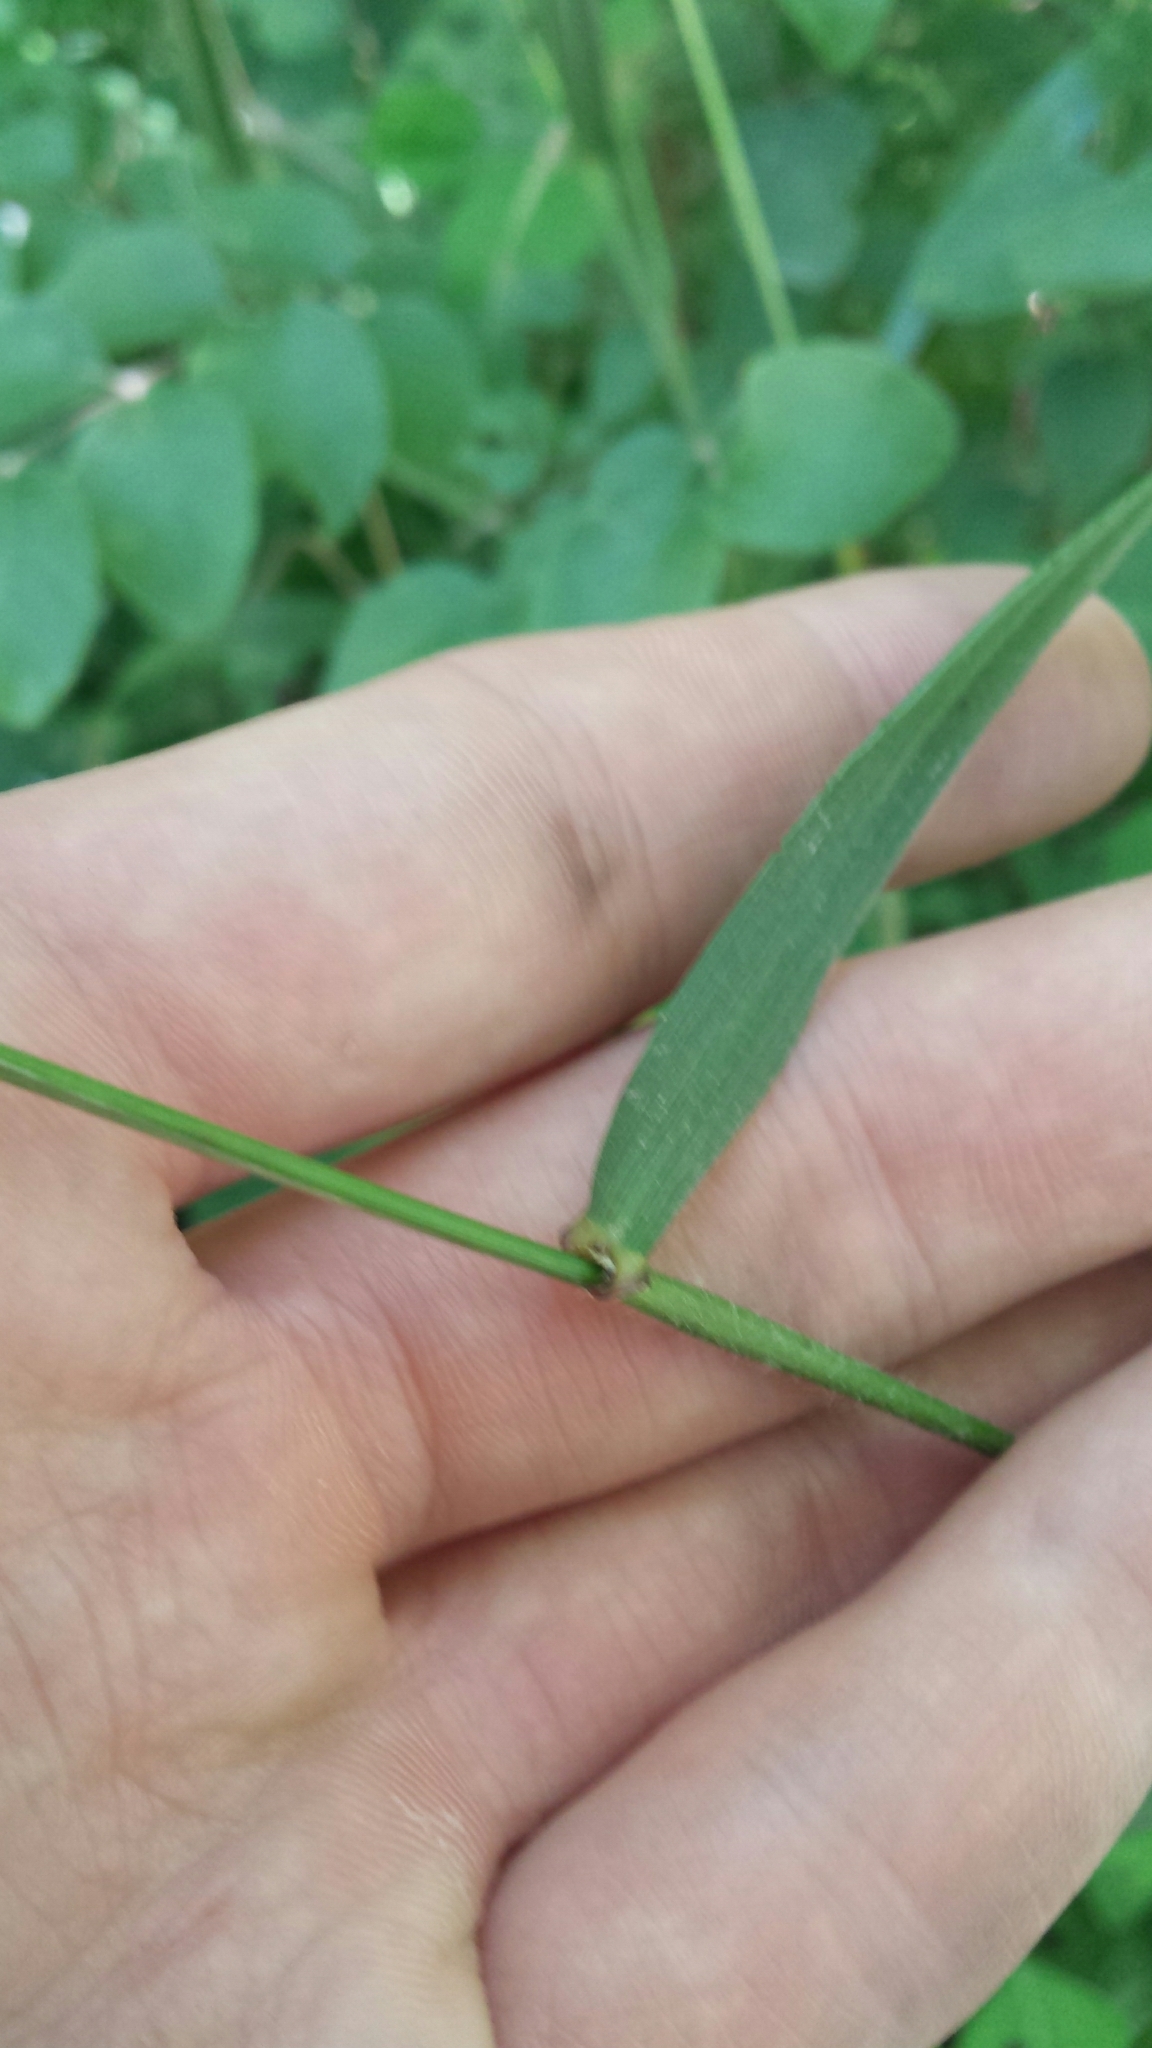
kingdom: Plantae
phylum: Tracheophyta
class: Liliopsida
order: Poales
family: Poaceae
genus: Elymus
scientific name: Elymus villosus
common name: Downy wild rye
